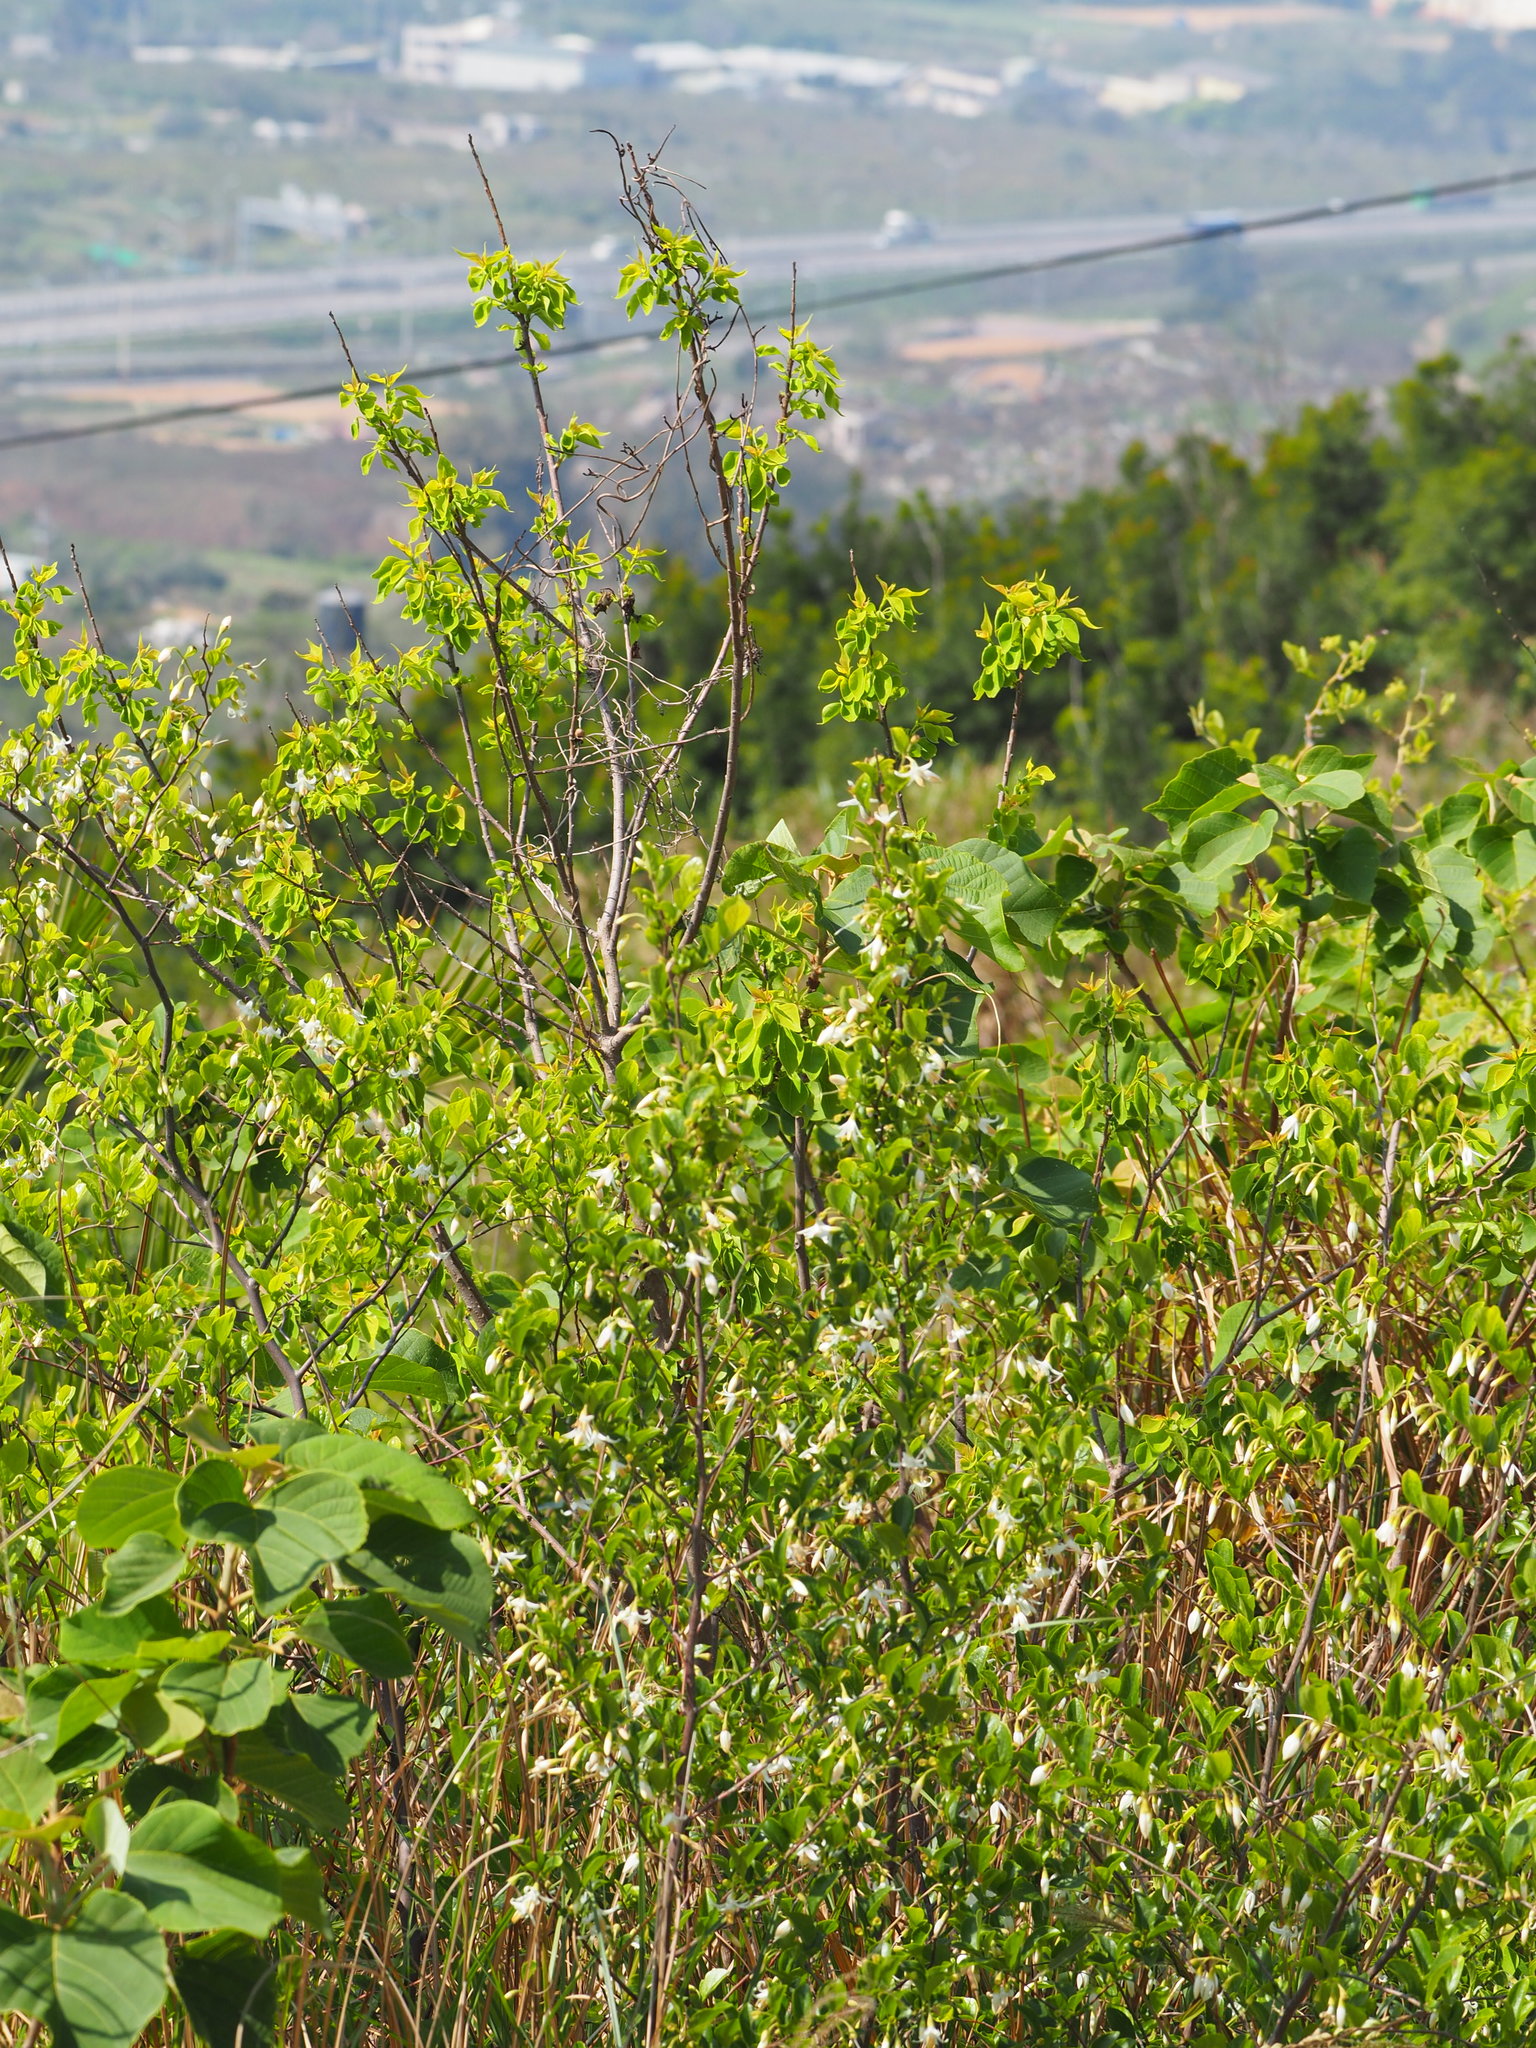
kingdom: Plantae
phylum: Tracheophyta
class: Magnoliopsida
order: Ericales
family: Styracaceae
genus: Styrax
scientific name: Styrax faberi
